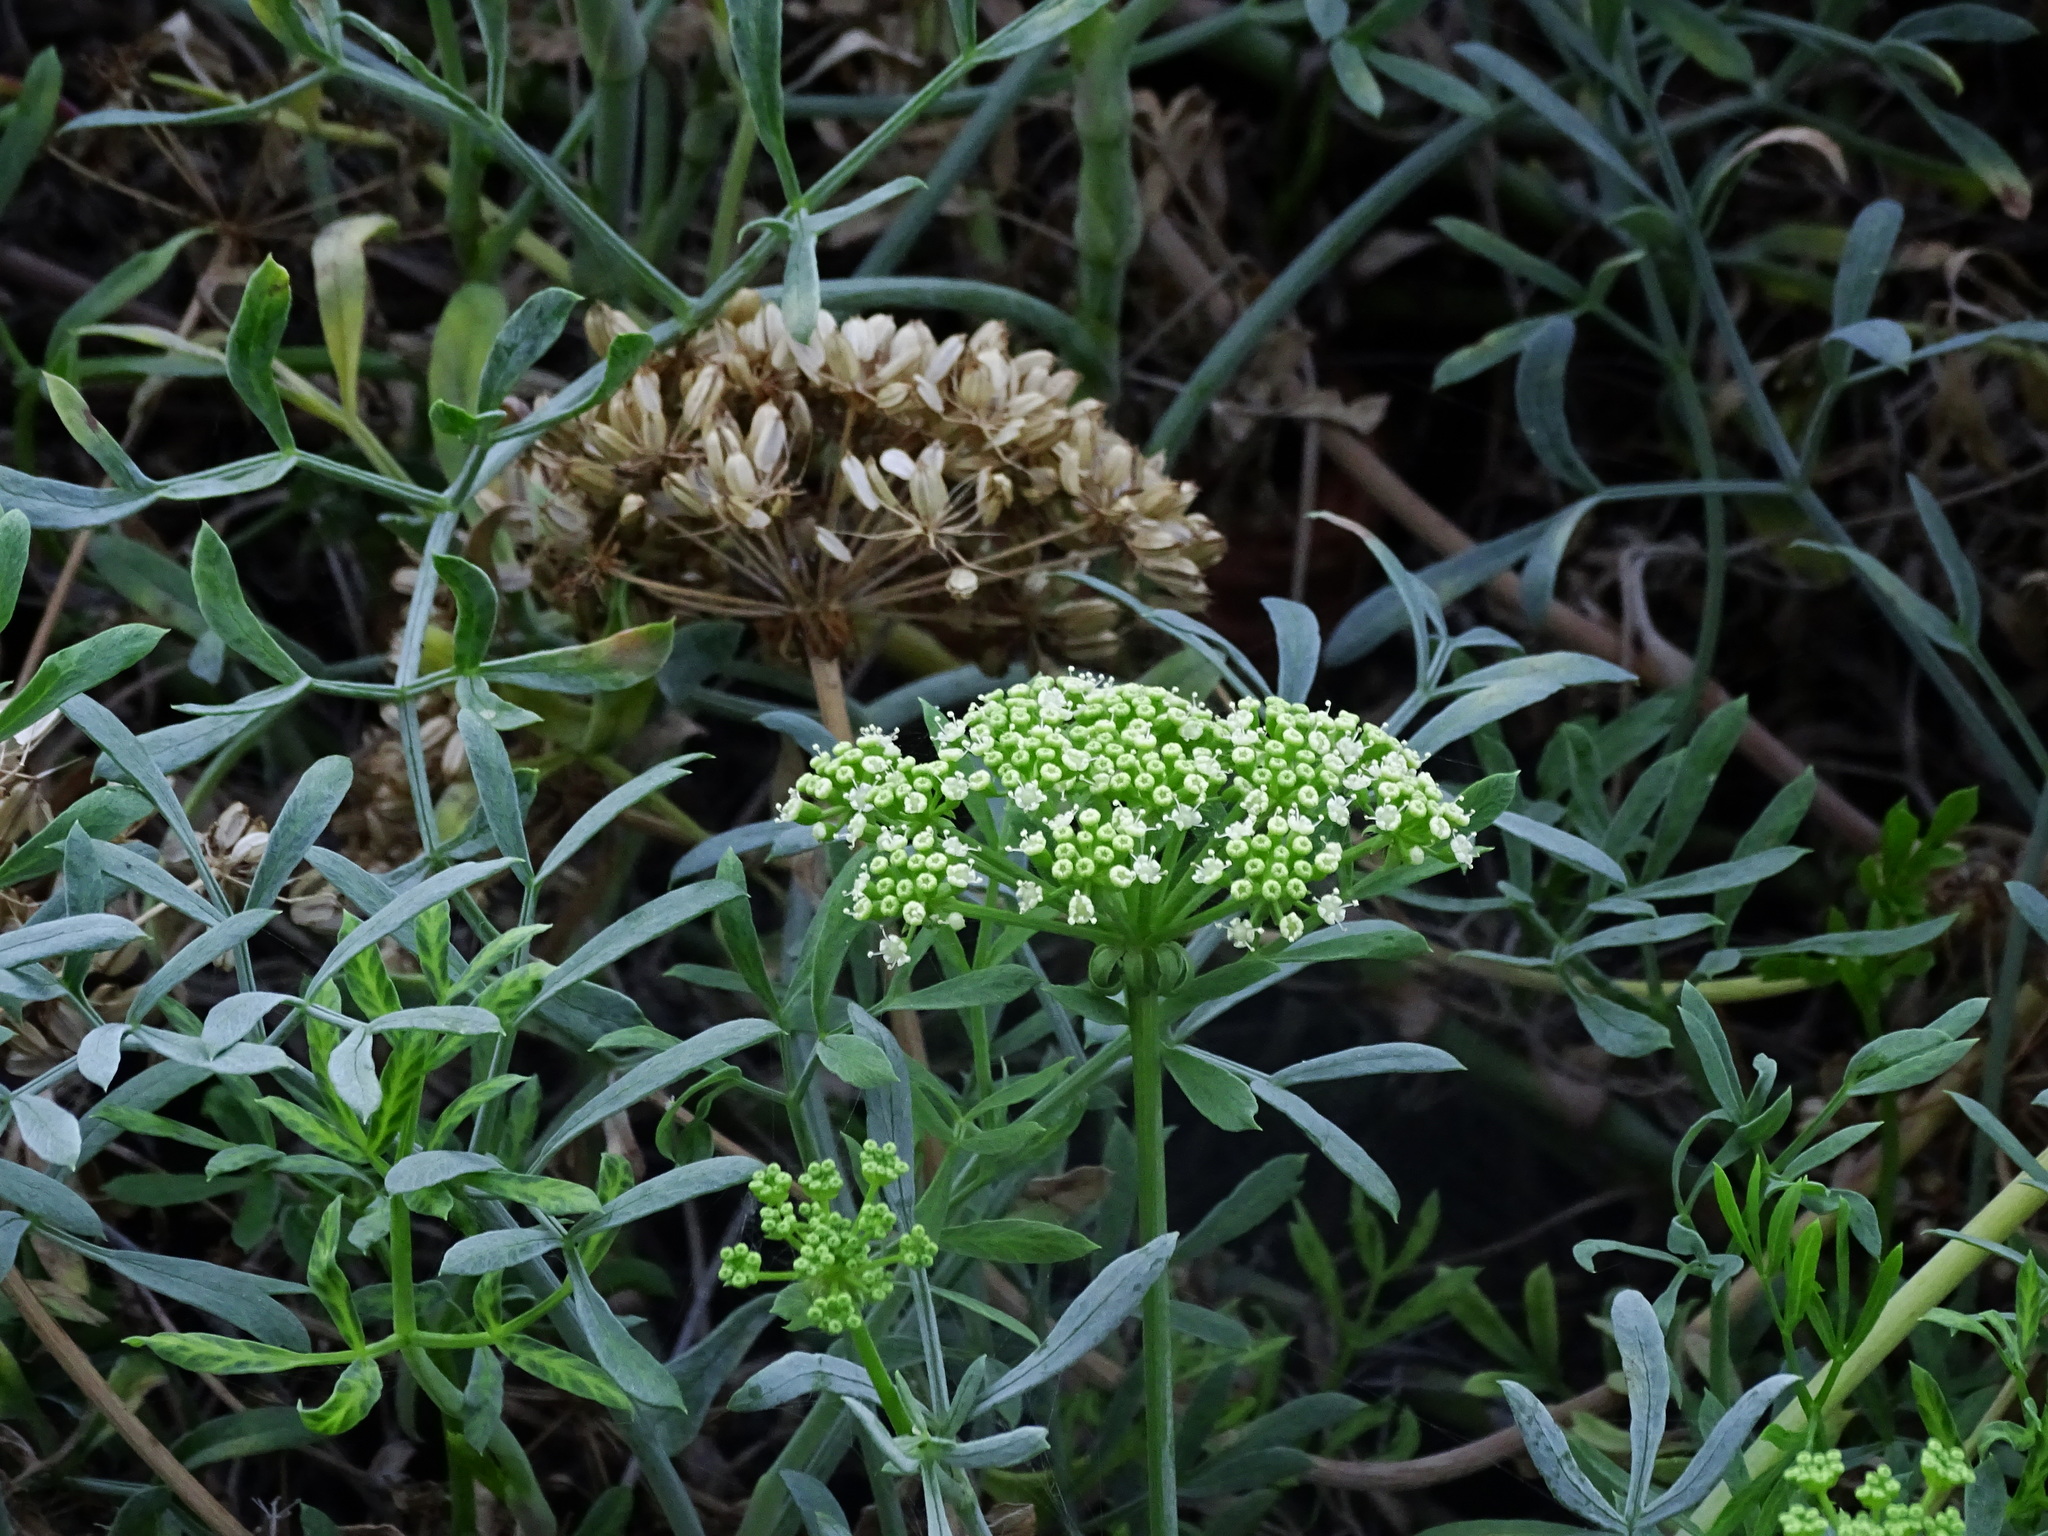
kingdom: Plantae
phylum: Tracheophyta
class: Magnoliopsida
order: Apiales
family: Apiaceae
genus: Crithmum
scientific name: Crithmum maritimum
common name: Rock samphire
